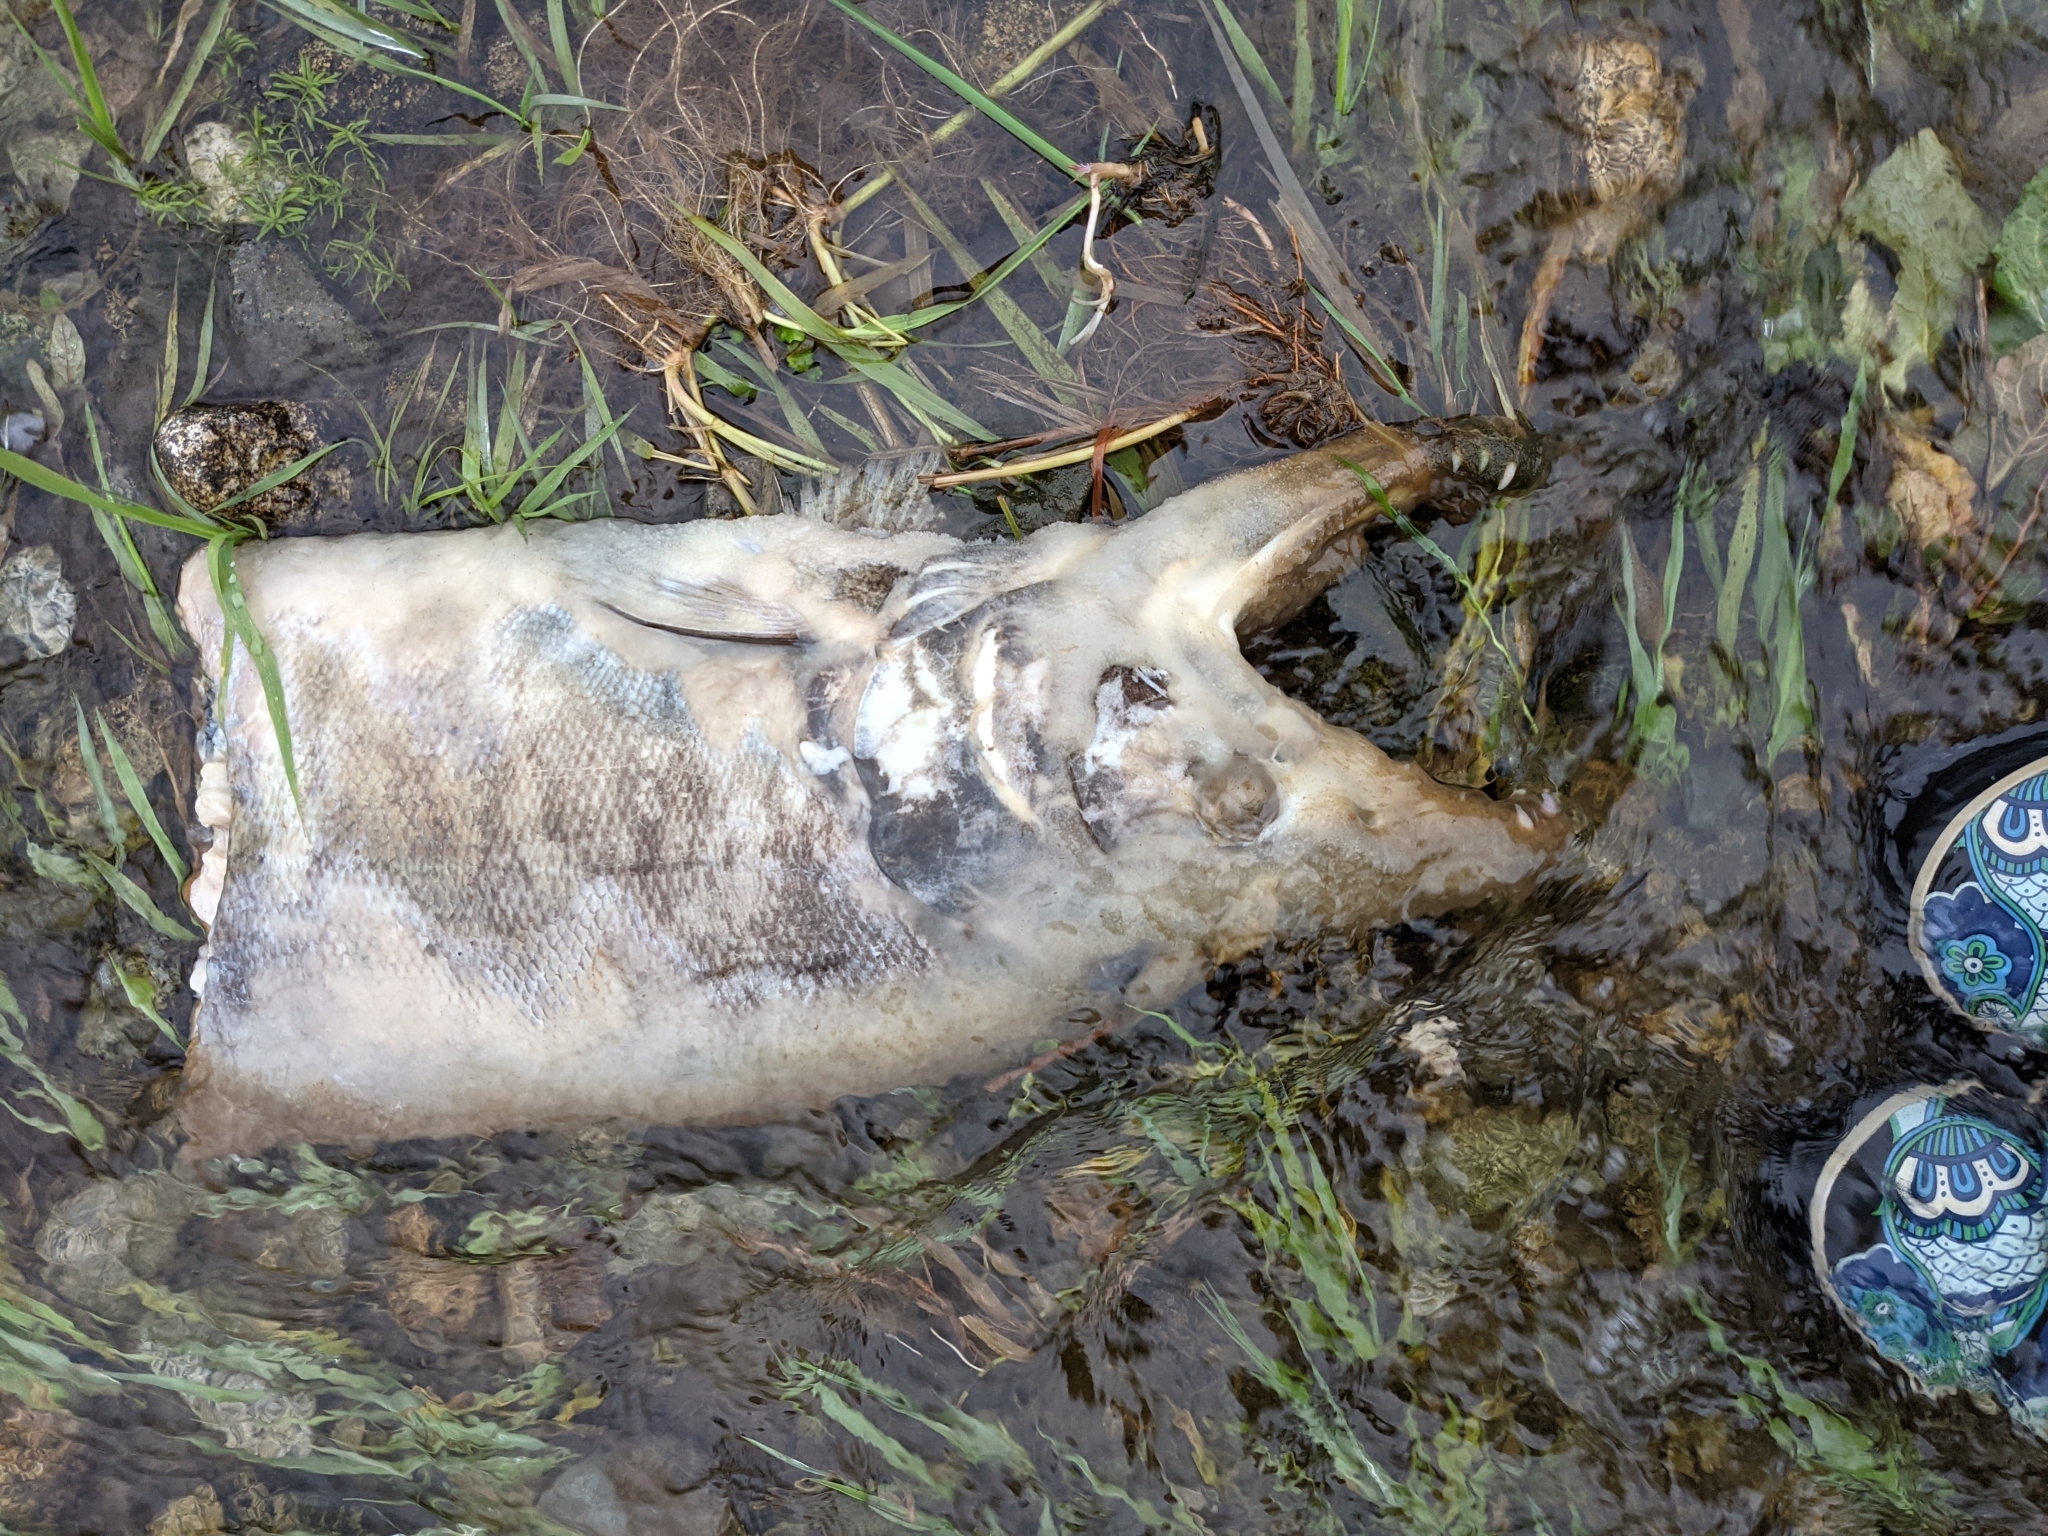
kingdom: Animalia
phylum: Chordata
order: Salmoniformes
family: Salmonidae
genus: Oncorhynchus
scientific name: Oncorhynchus keta
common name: Chum salmon
